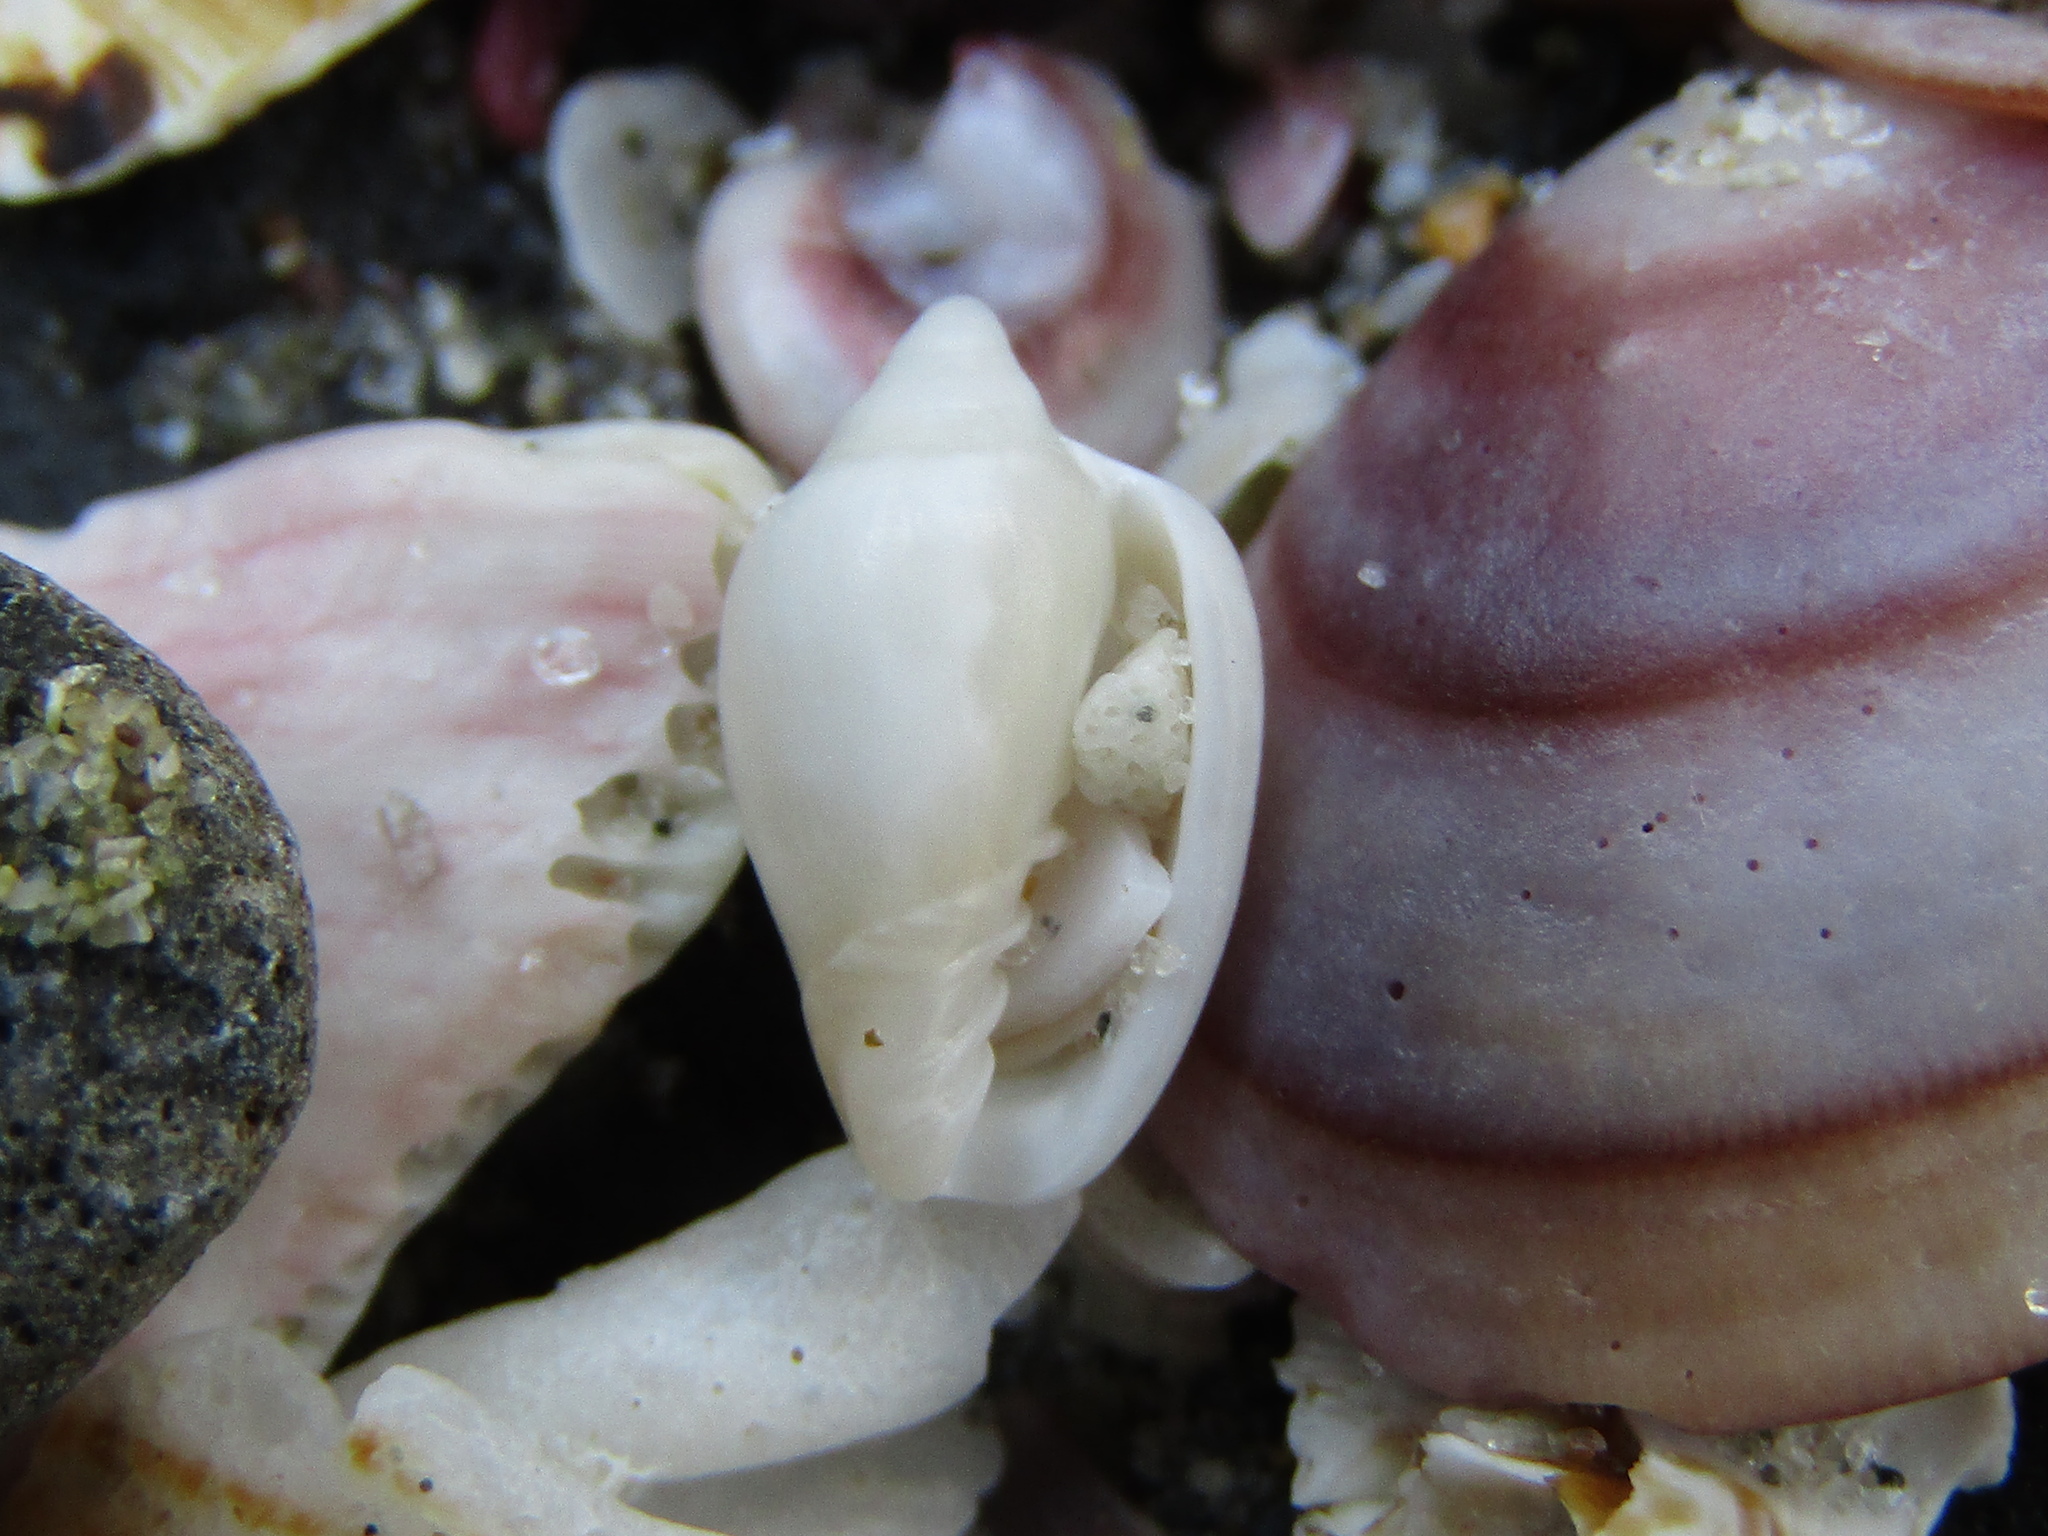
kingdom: Animalia
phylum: Mollusca
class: Gastropoda
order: Neogastropoda
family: Marginellidae
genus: Mesoginella
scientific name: Mesoginella vailei
